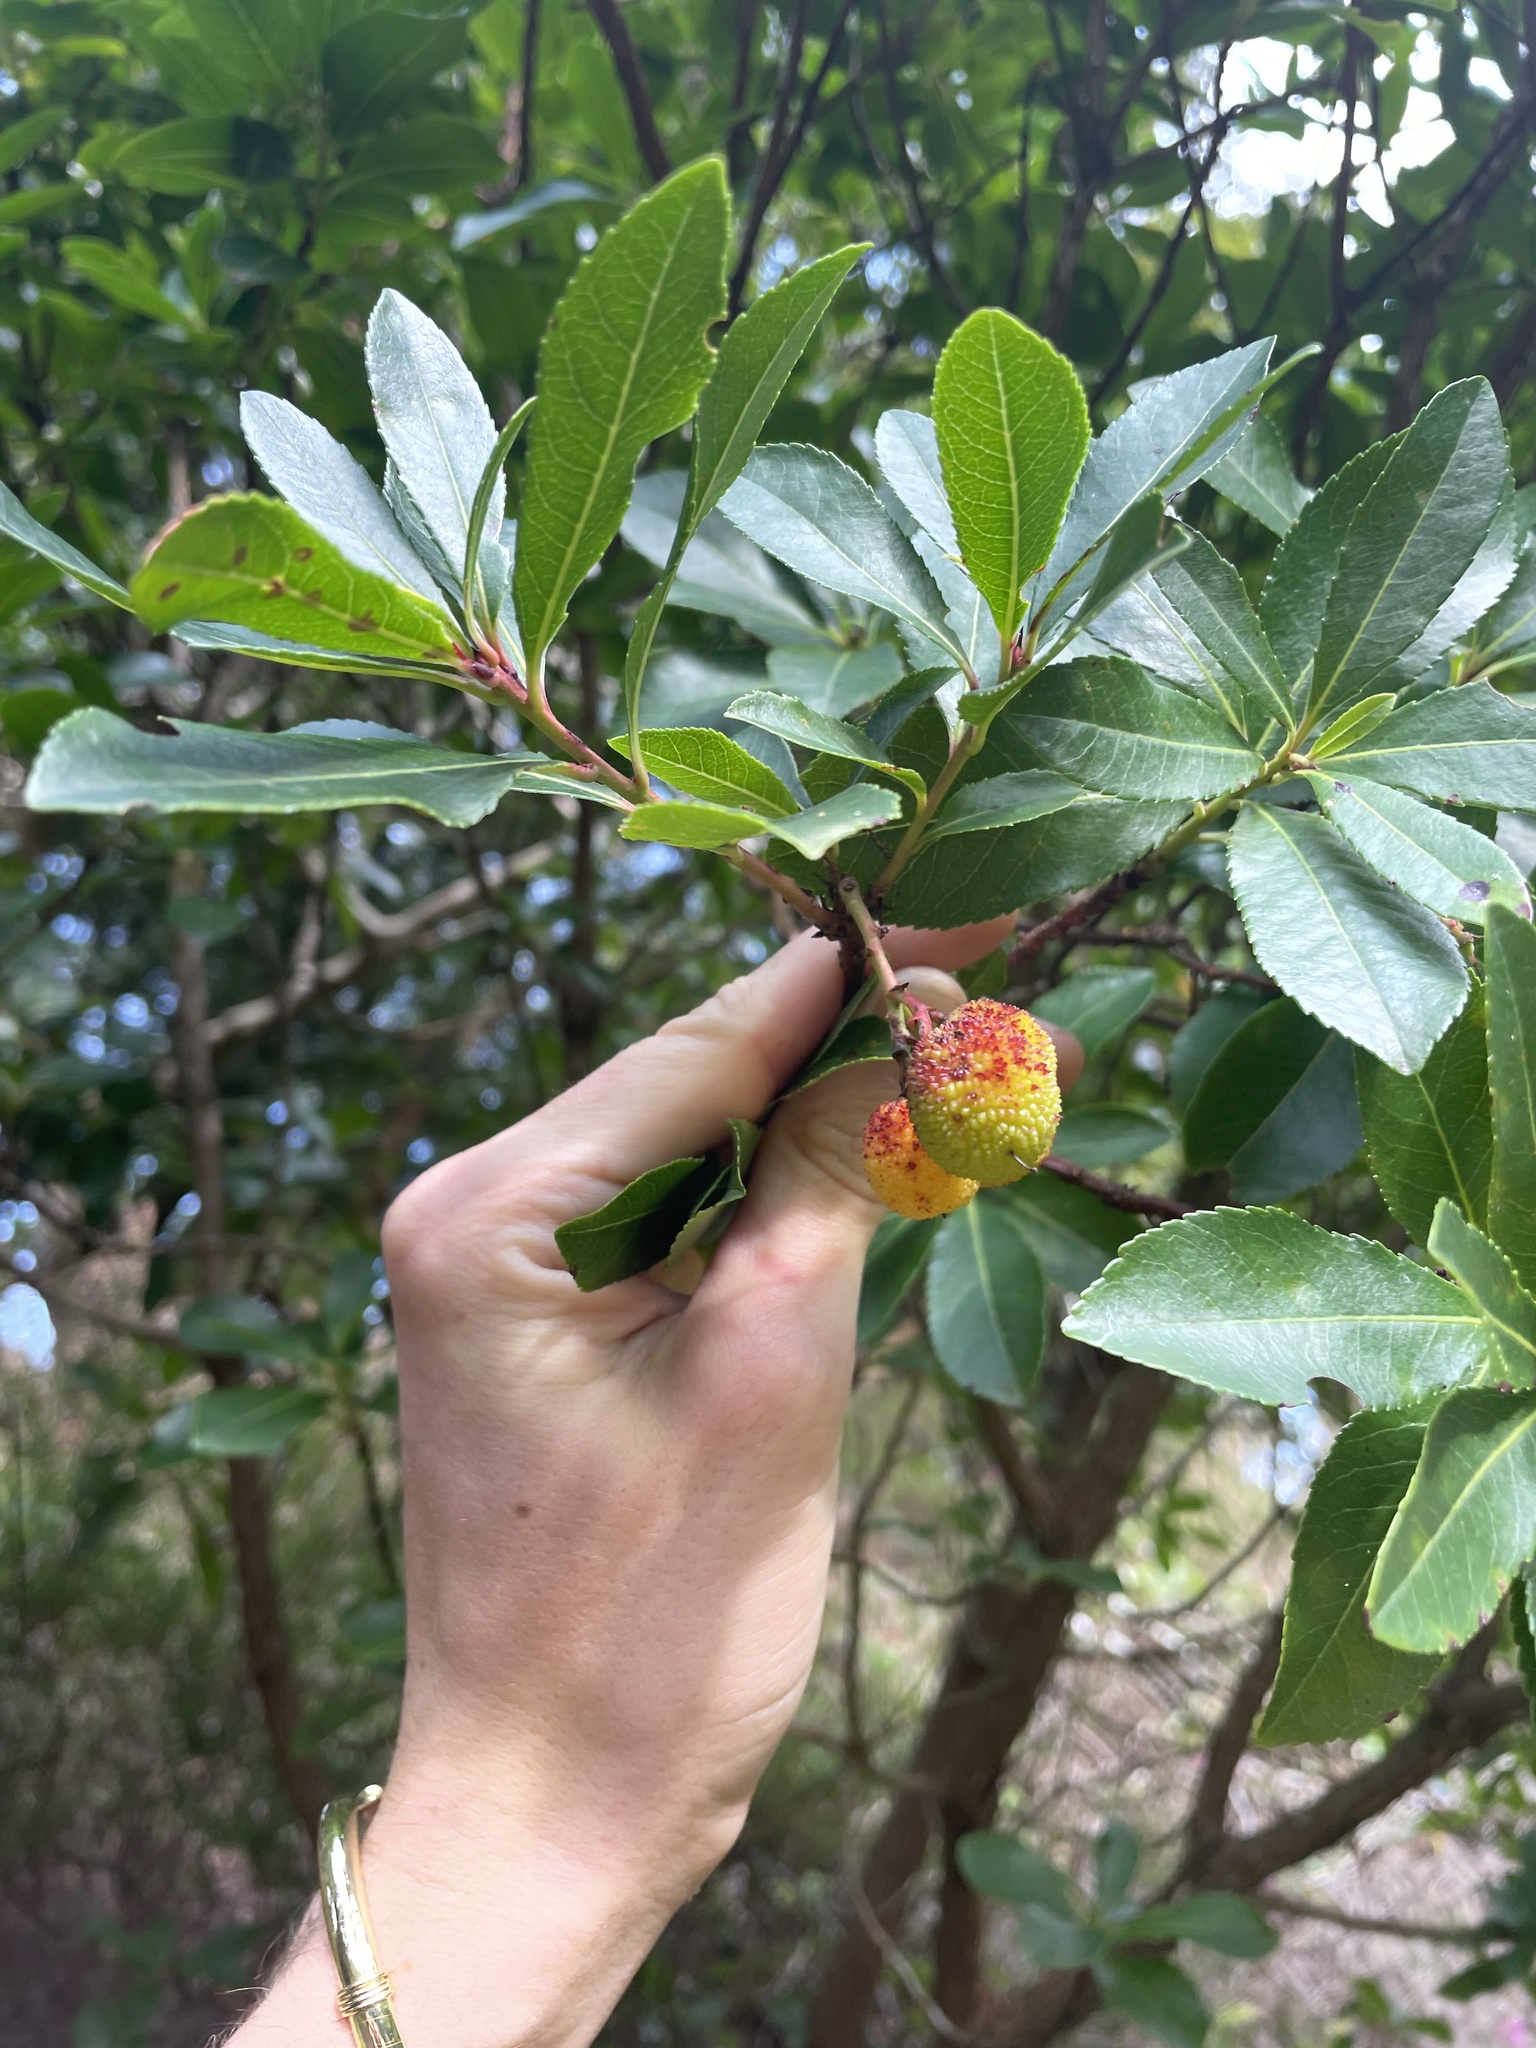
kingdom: Plantae
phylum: Tracheophyta
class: Magnoliopsida
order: Ericales
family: Ericaceae
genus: Arbutus
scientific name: Arbutus unedo
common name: Strawberry-tree
